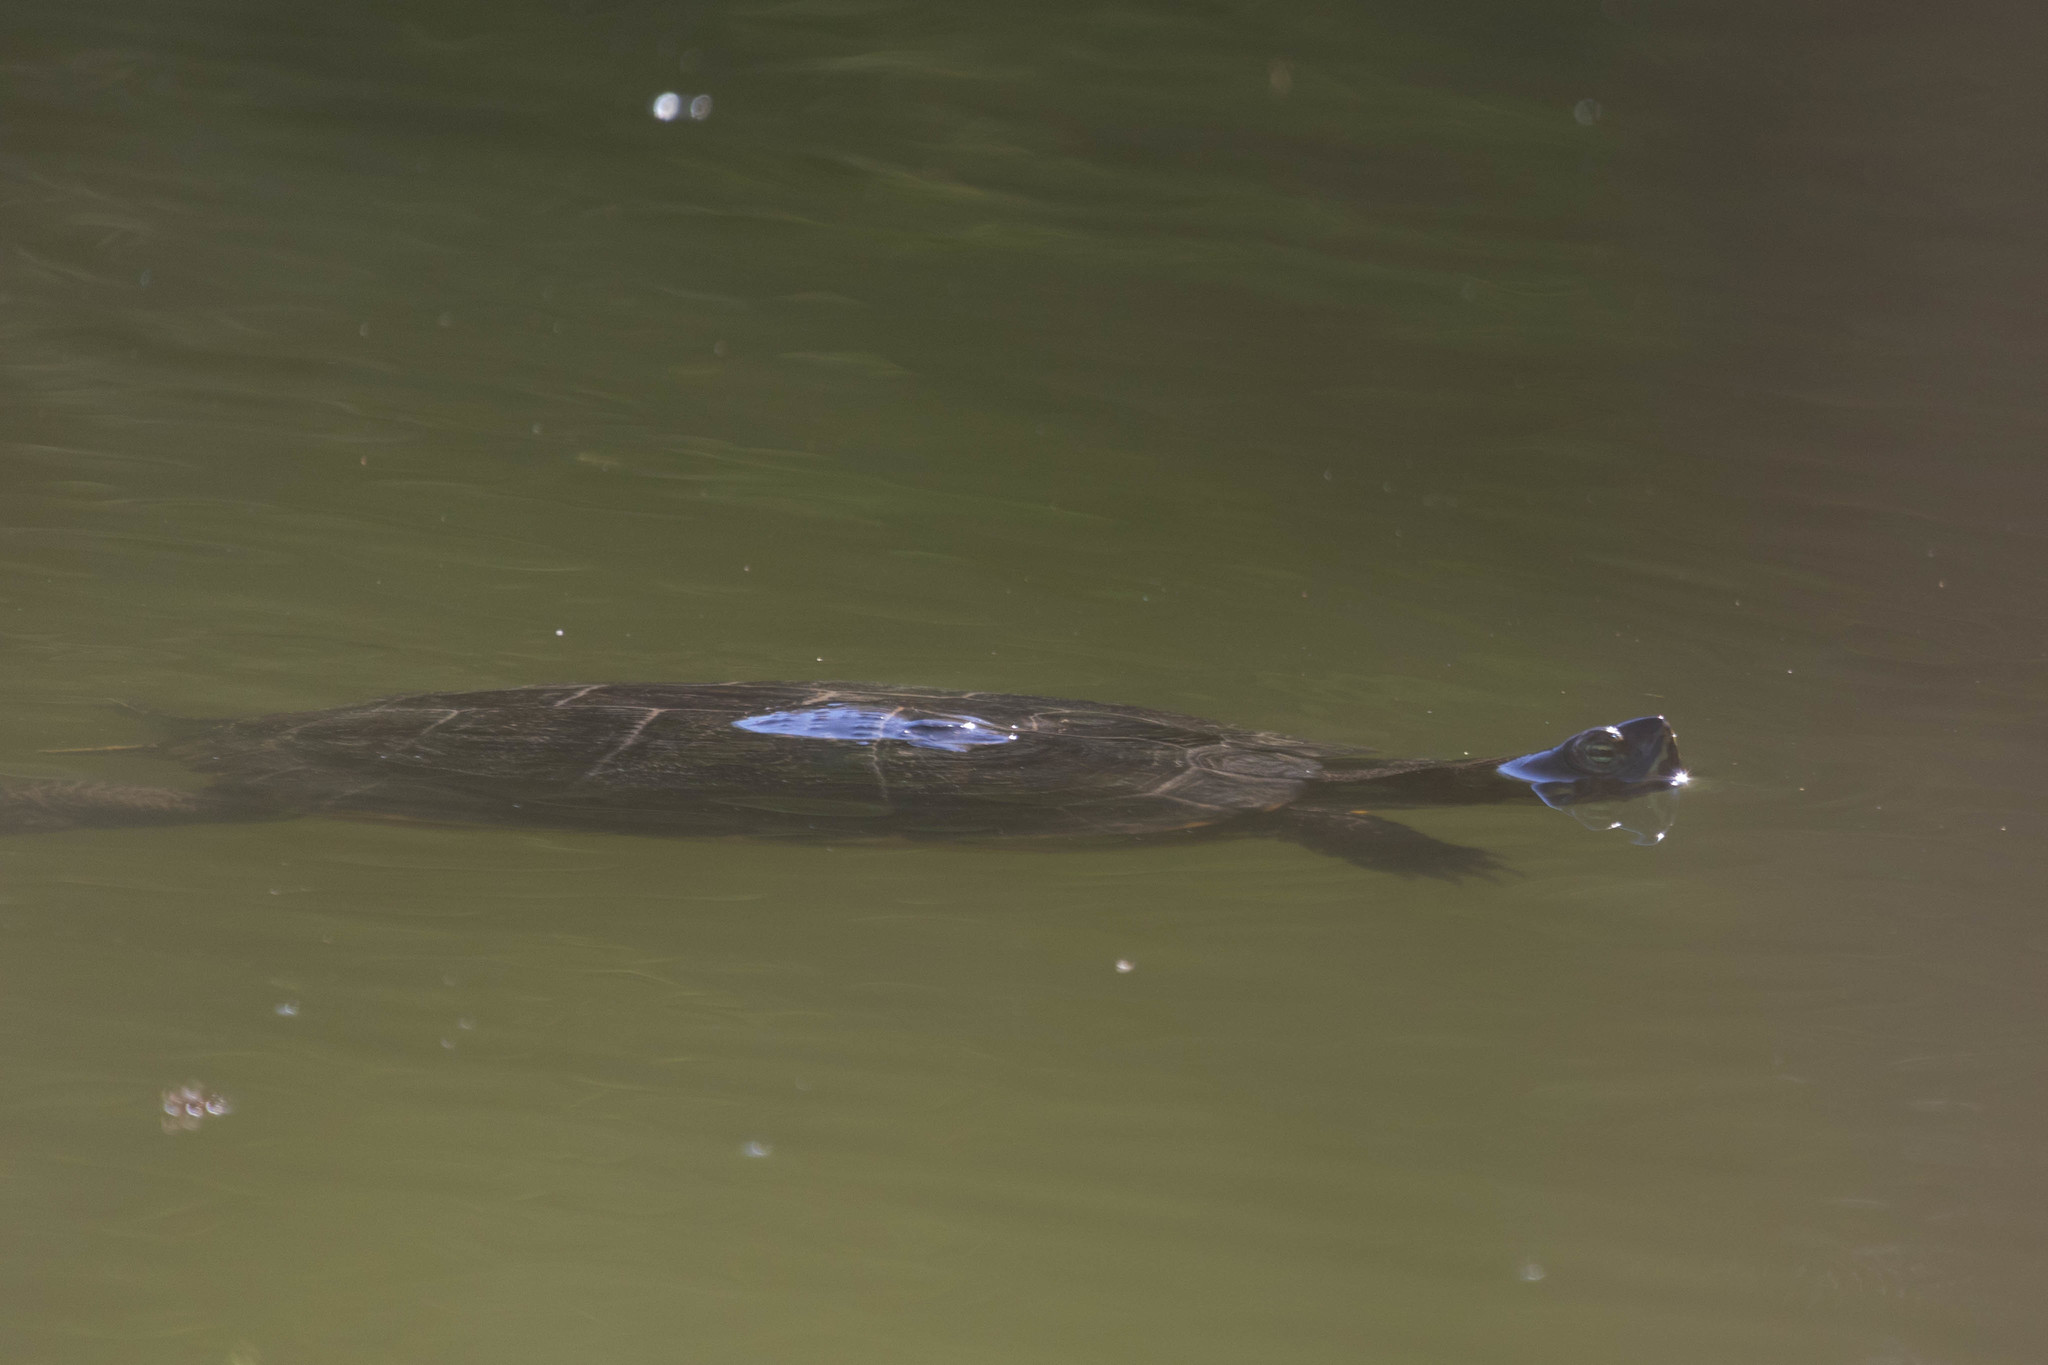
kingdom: Animalia
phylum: Chordata
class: Testudines
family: Emydidae
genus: Trachemys
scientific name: Trachemys scripta
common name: Slider
